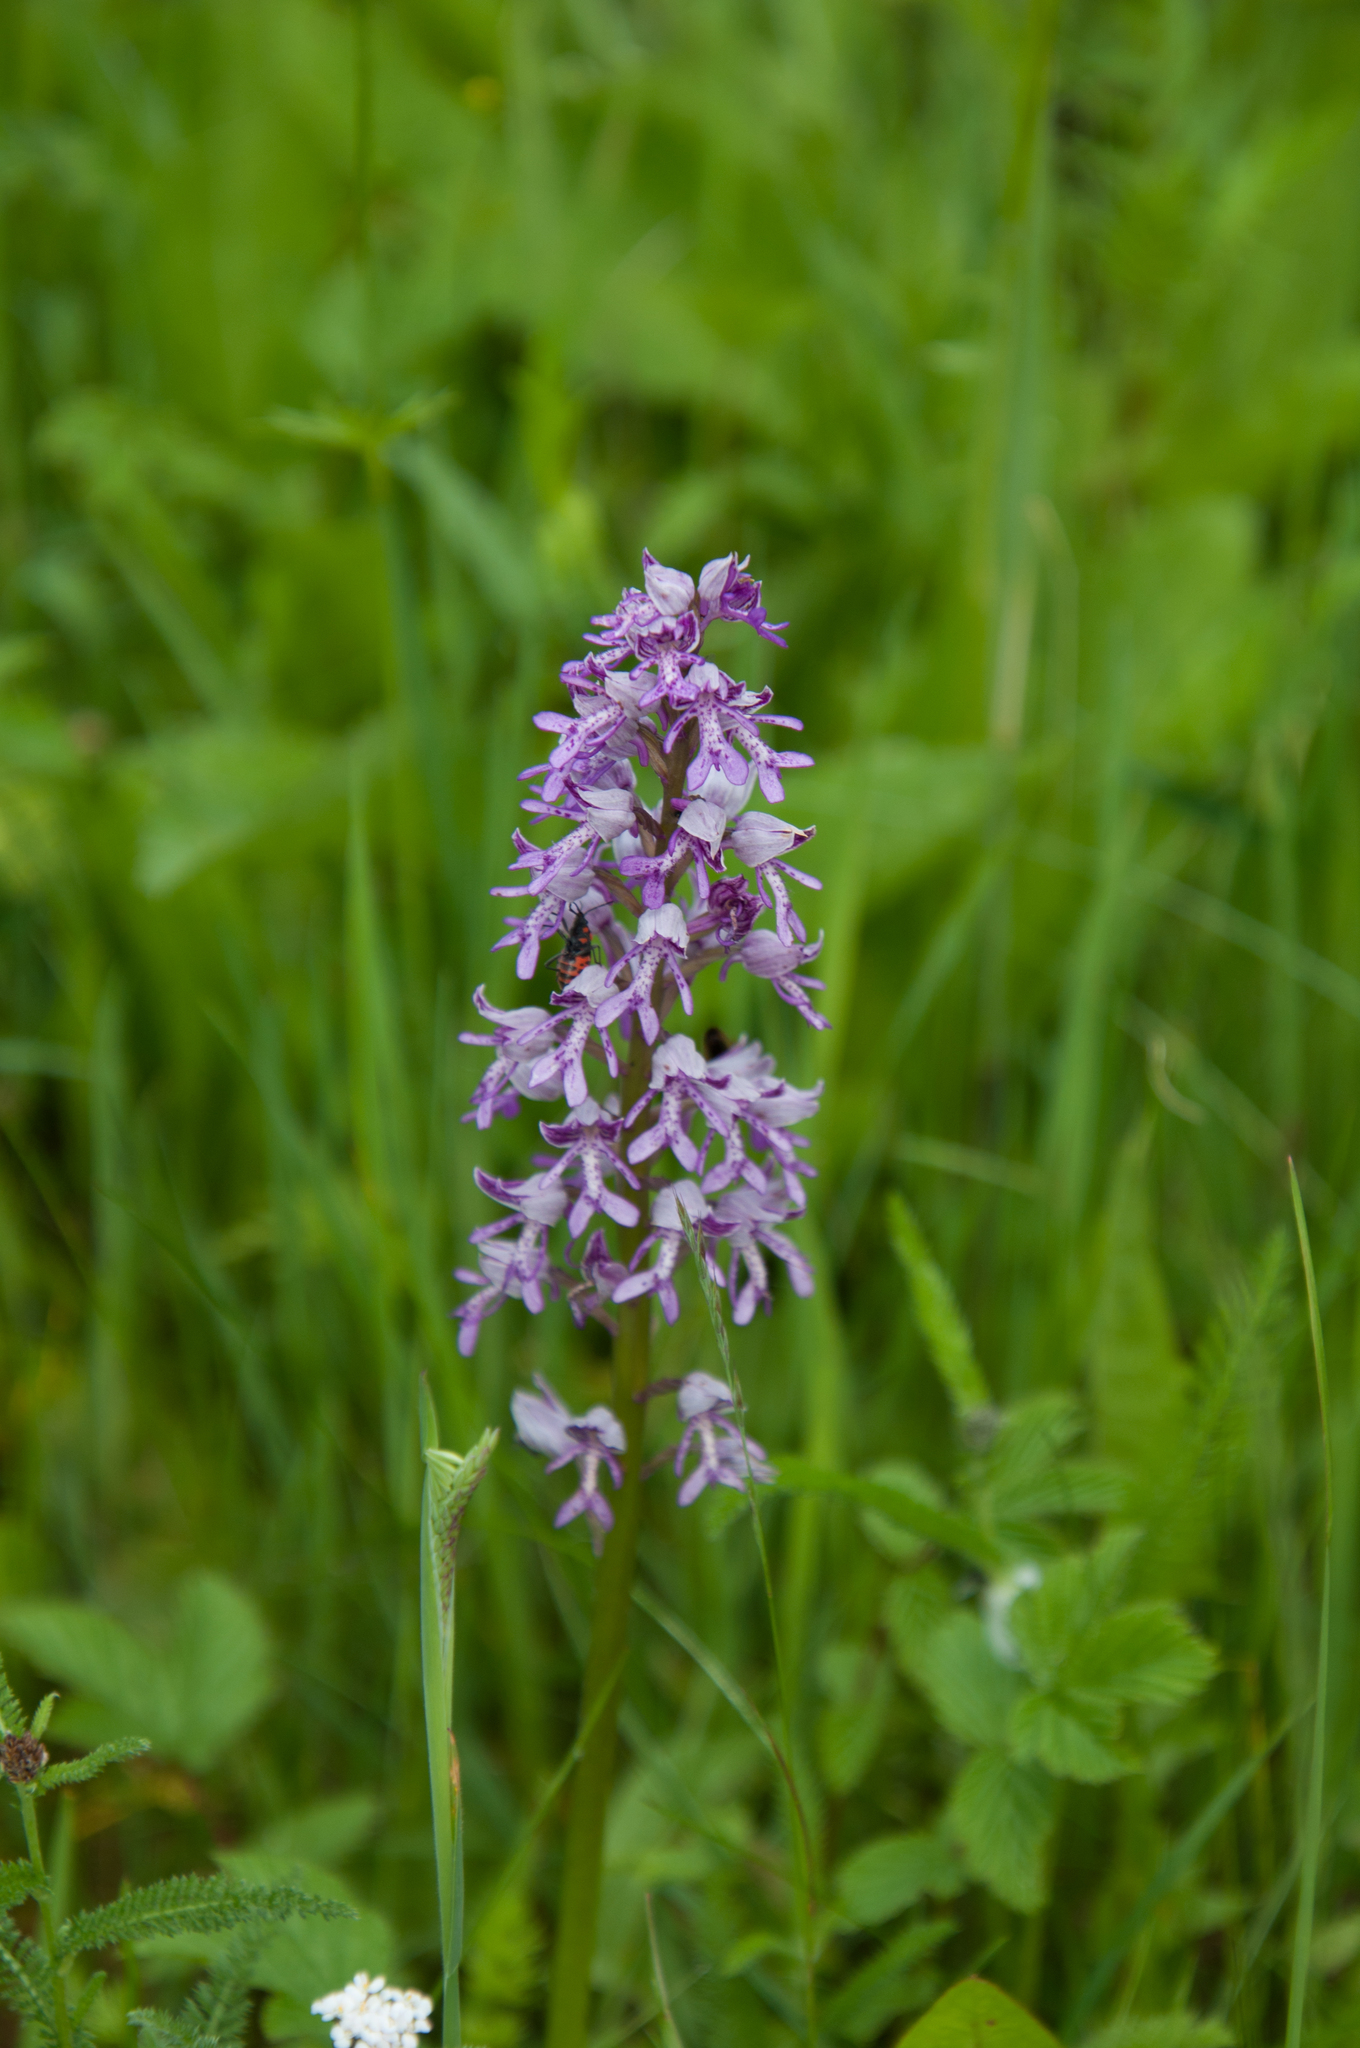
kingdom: Plantae
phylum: Tracheophyta
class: Liliopsida
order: Asparagales
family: Orchidaceae
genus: Orchis
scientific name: Orchis militaris
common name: Military orchid
